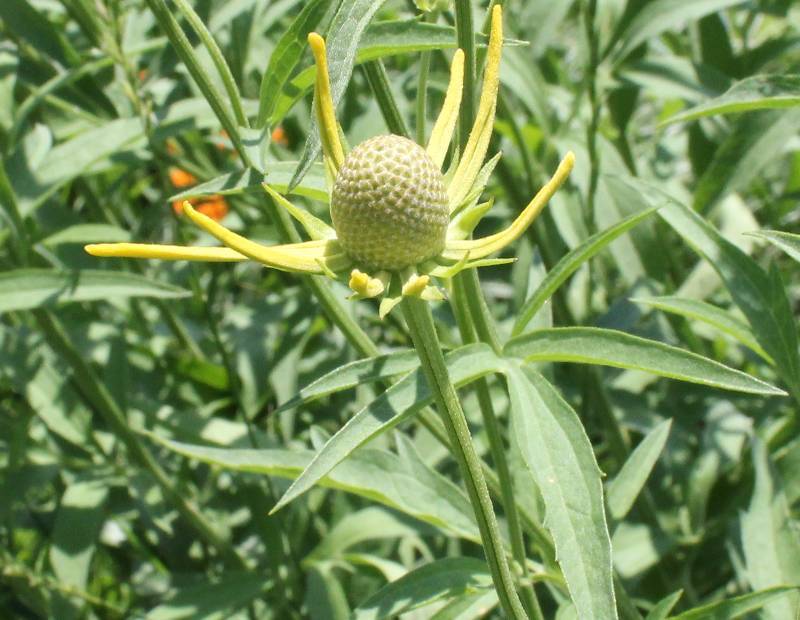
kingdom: Plantae
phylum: Tracheophyta
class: Magnoliopsida
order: Asterales
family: Asteraceae
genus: Ratibida
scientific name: Ratibida pinnata
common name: Drooping prairie-coneflower
